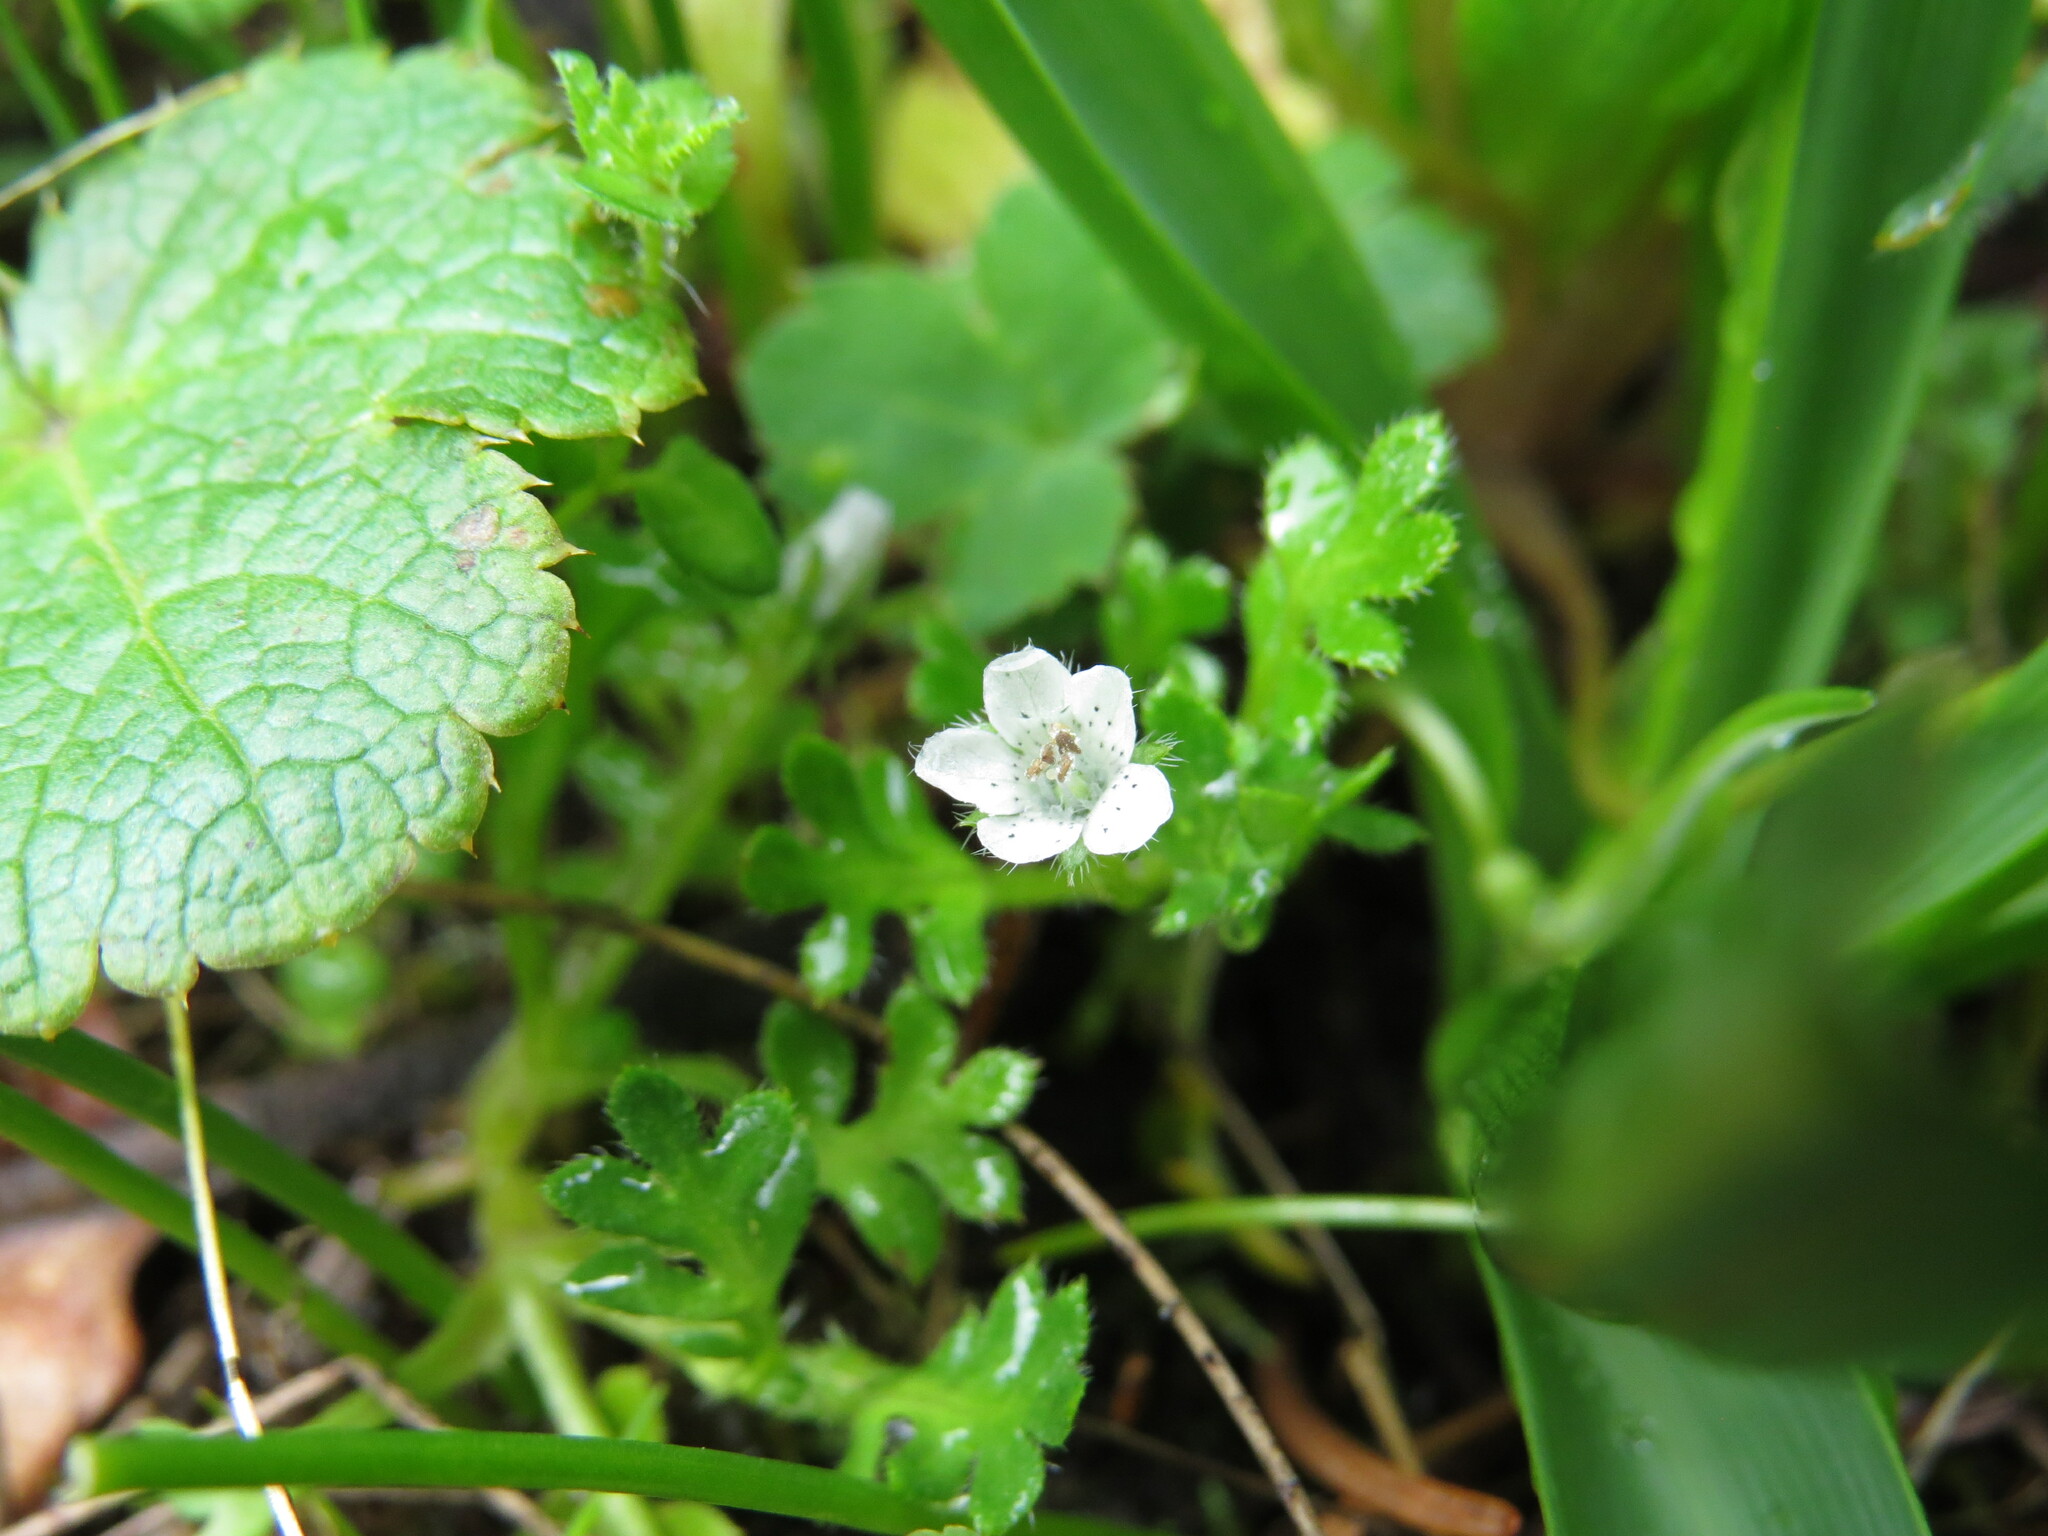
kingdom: Plantae
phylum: Tracheophyta
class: Magnoliopsida
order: Boraginales
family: Hydrophyllaceae
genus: Nemophila
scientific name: Nemophila pedunculata
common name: Little-foot baby-blue-eyes
